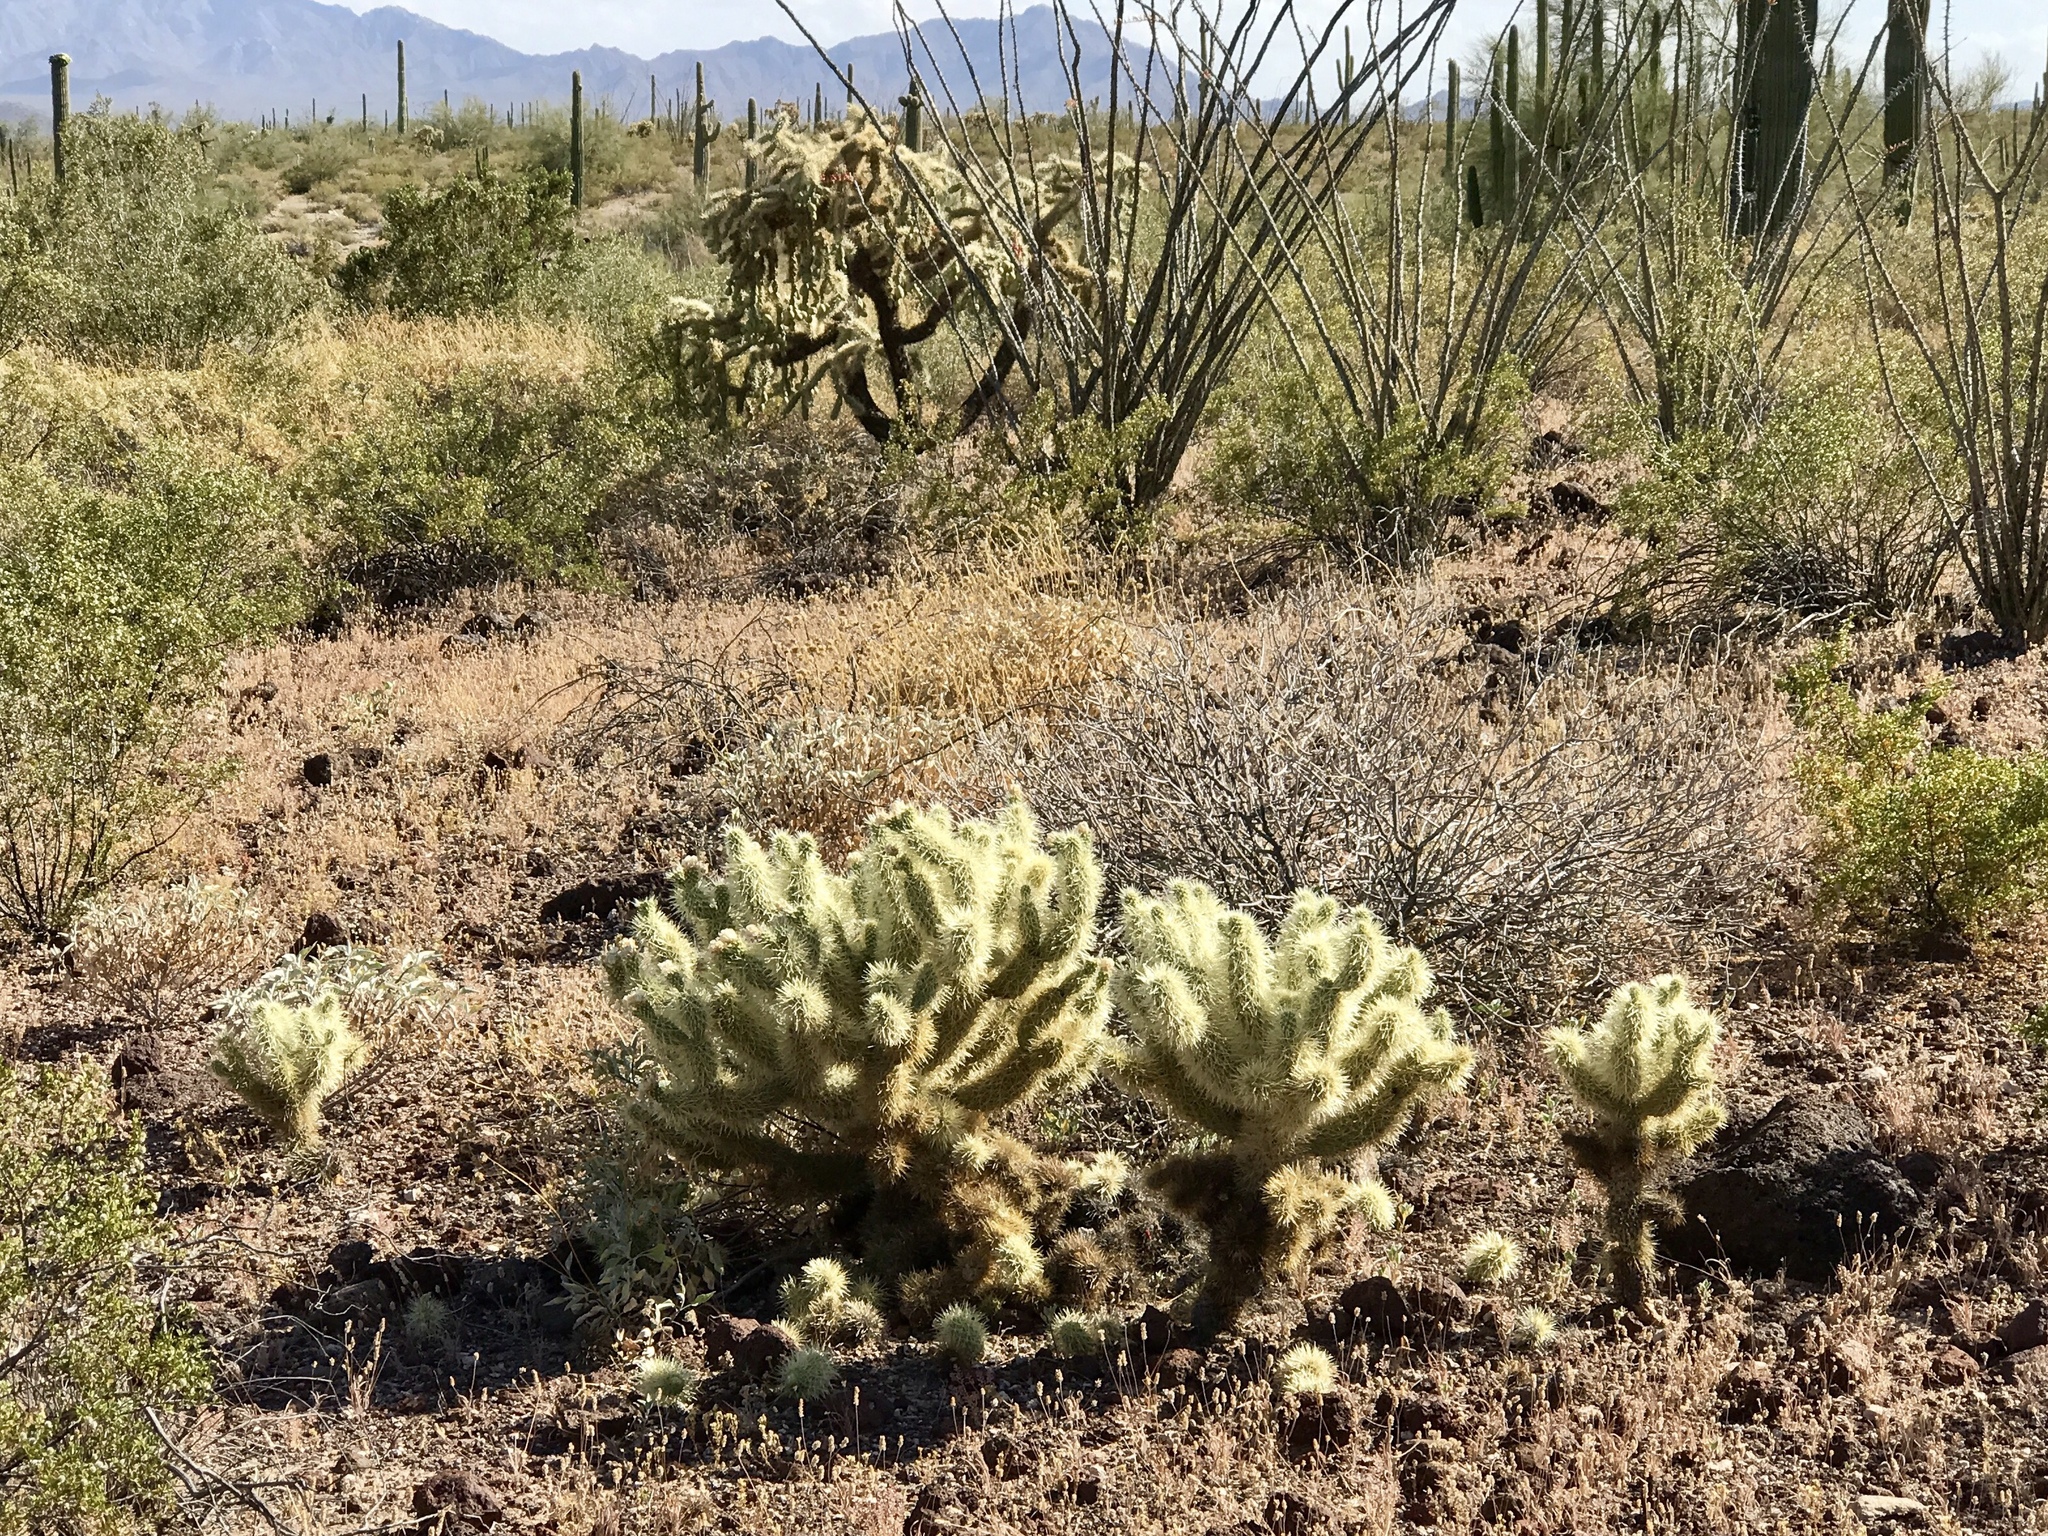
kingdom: Plantae
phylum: Tracheophyta
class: Magnoliopsida
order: Caryophyllales
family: Cactaceae
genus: Cylindropuntia
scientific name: Cylindropuntia fosbergii
